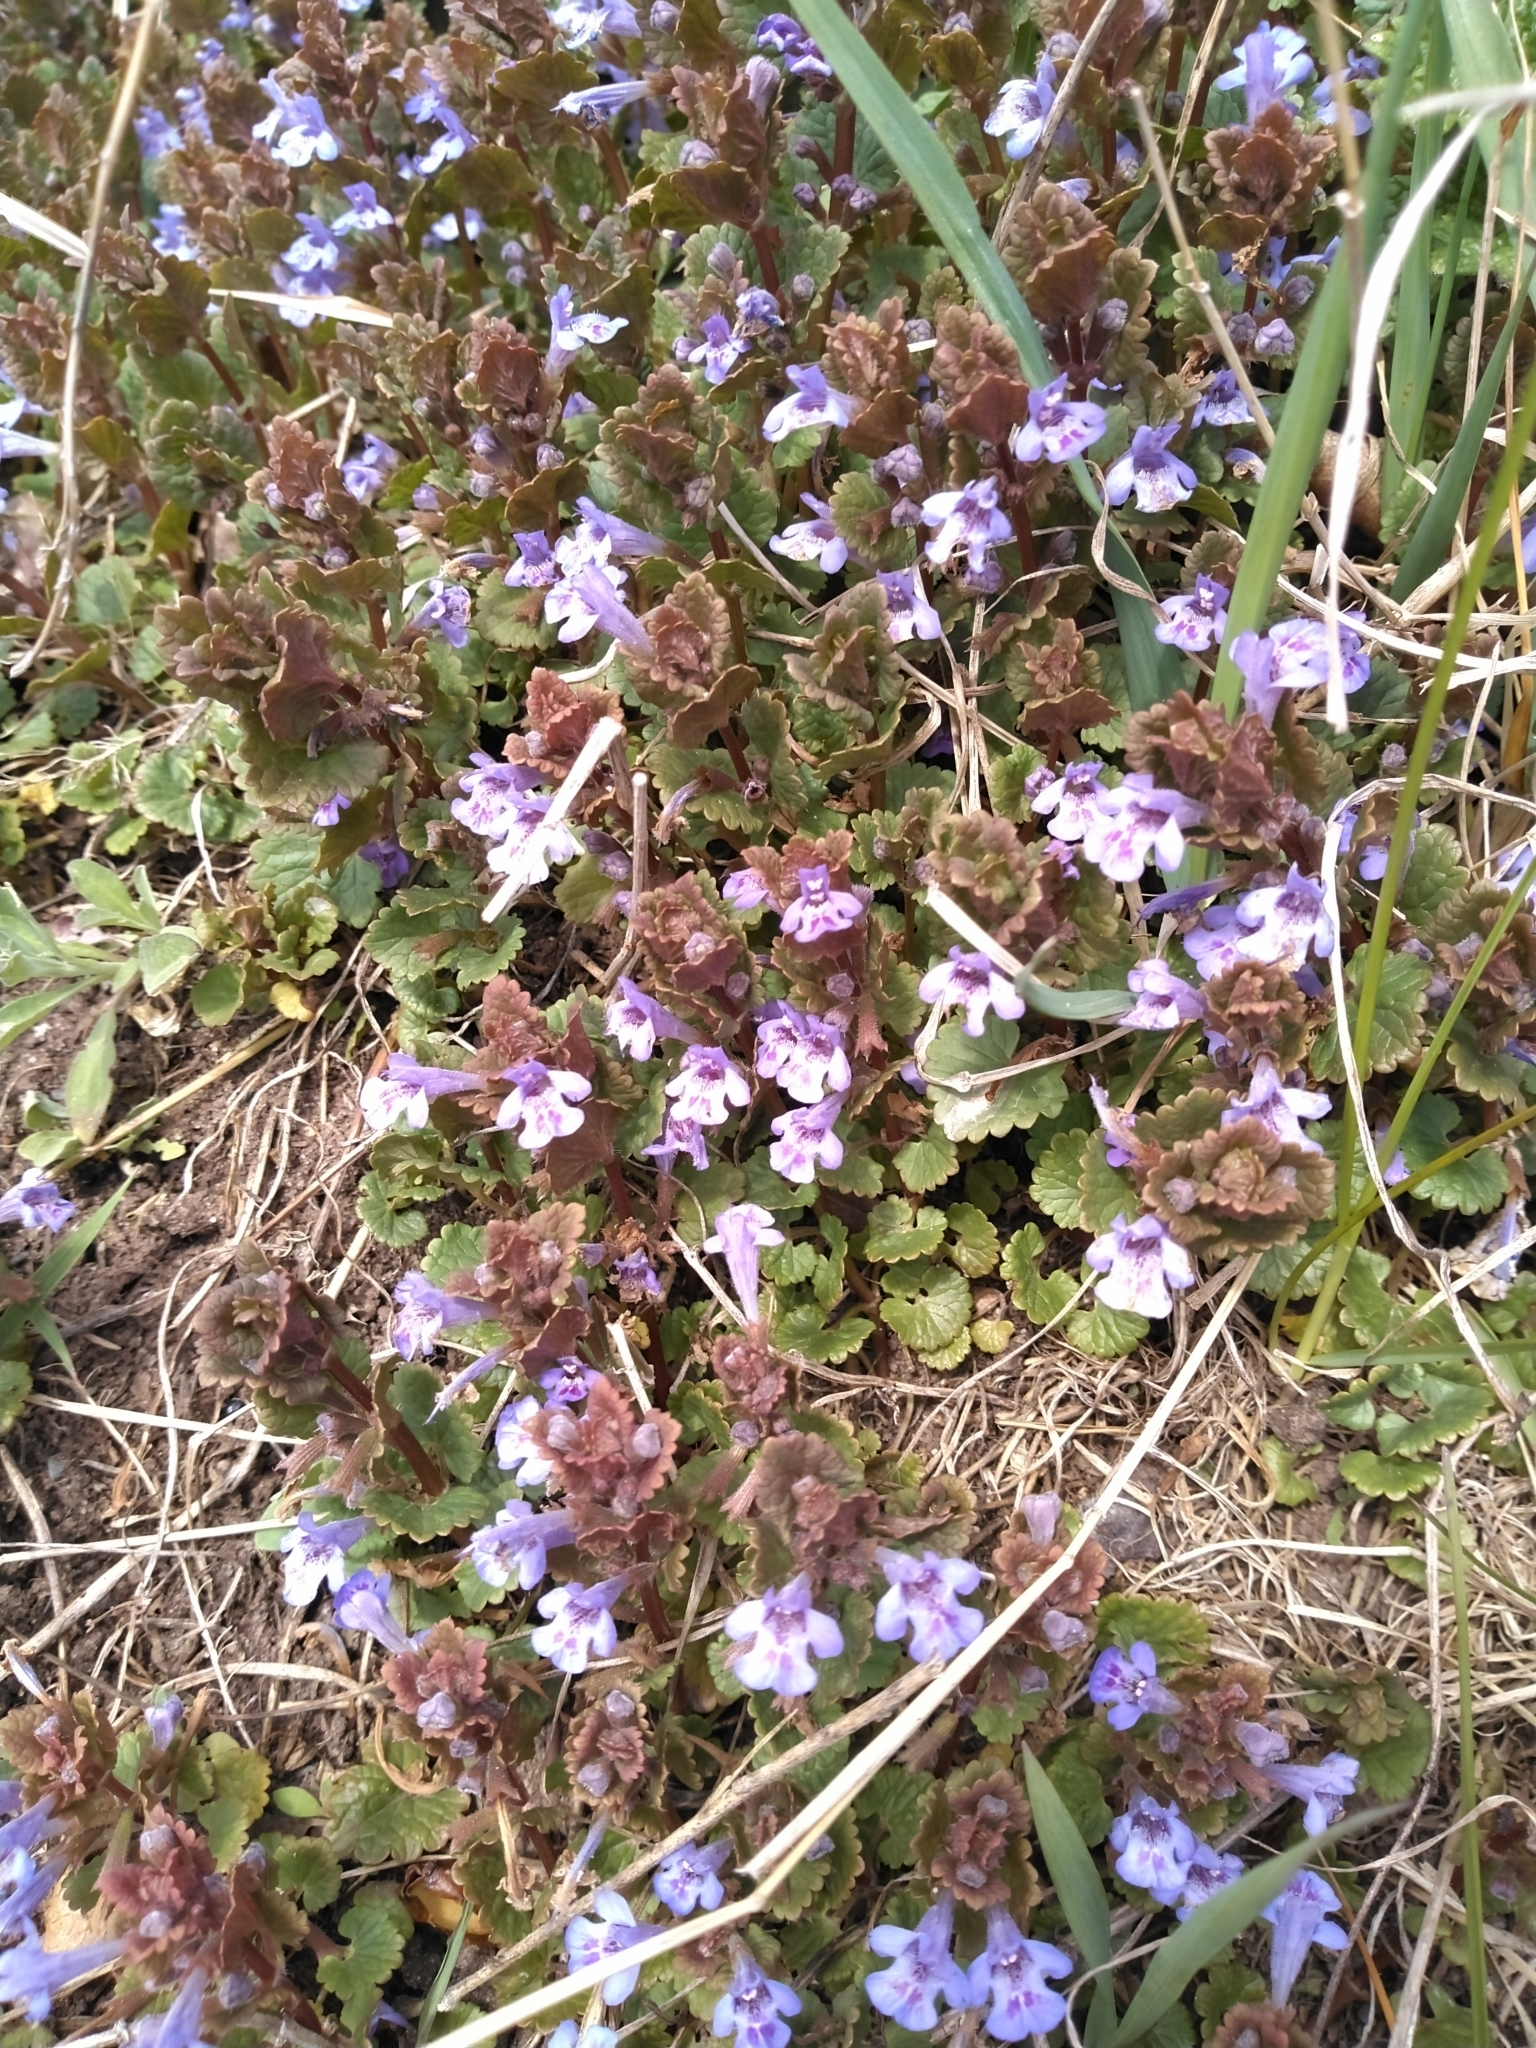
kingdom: Plantae
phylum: Tracheophyta
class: Magnoliopsida
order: Lamiales
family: Lamiaceae
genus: Glechoma
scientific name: Glechoma hederacea
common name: Ground ivy
